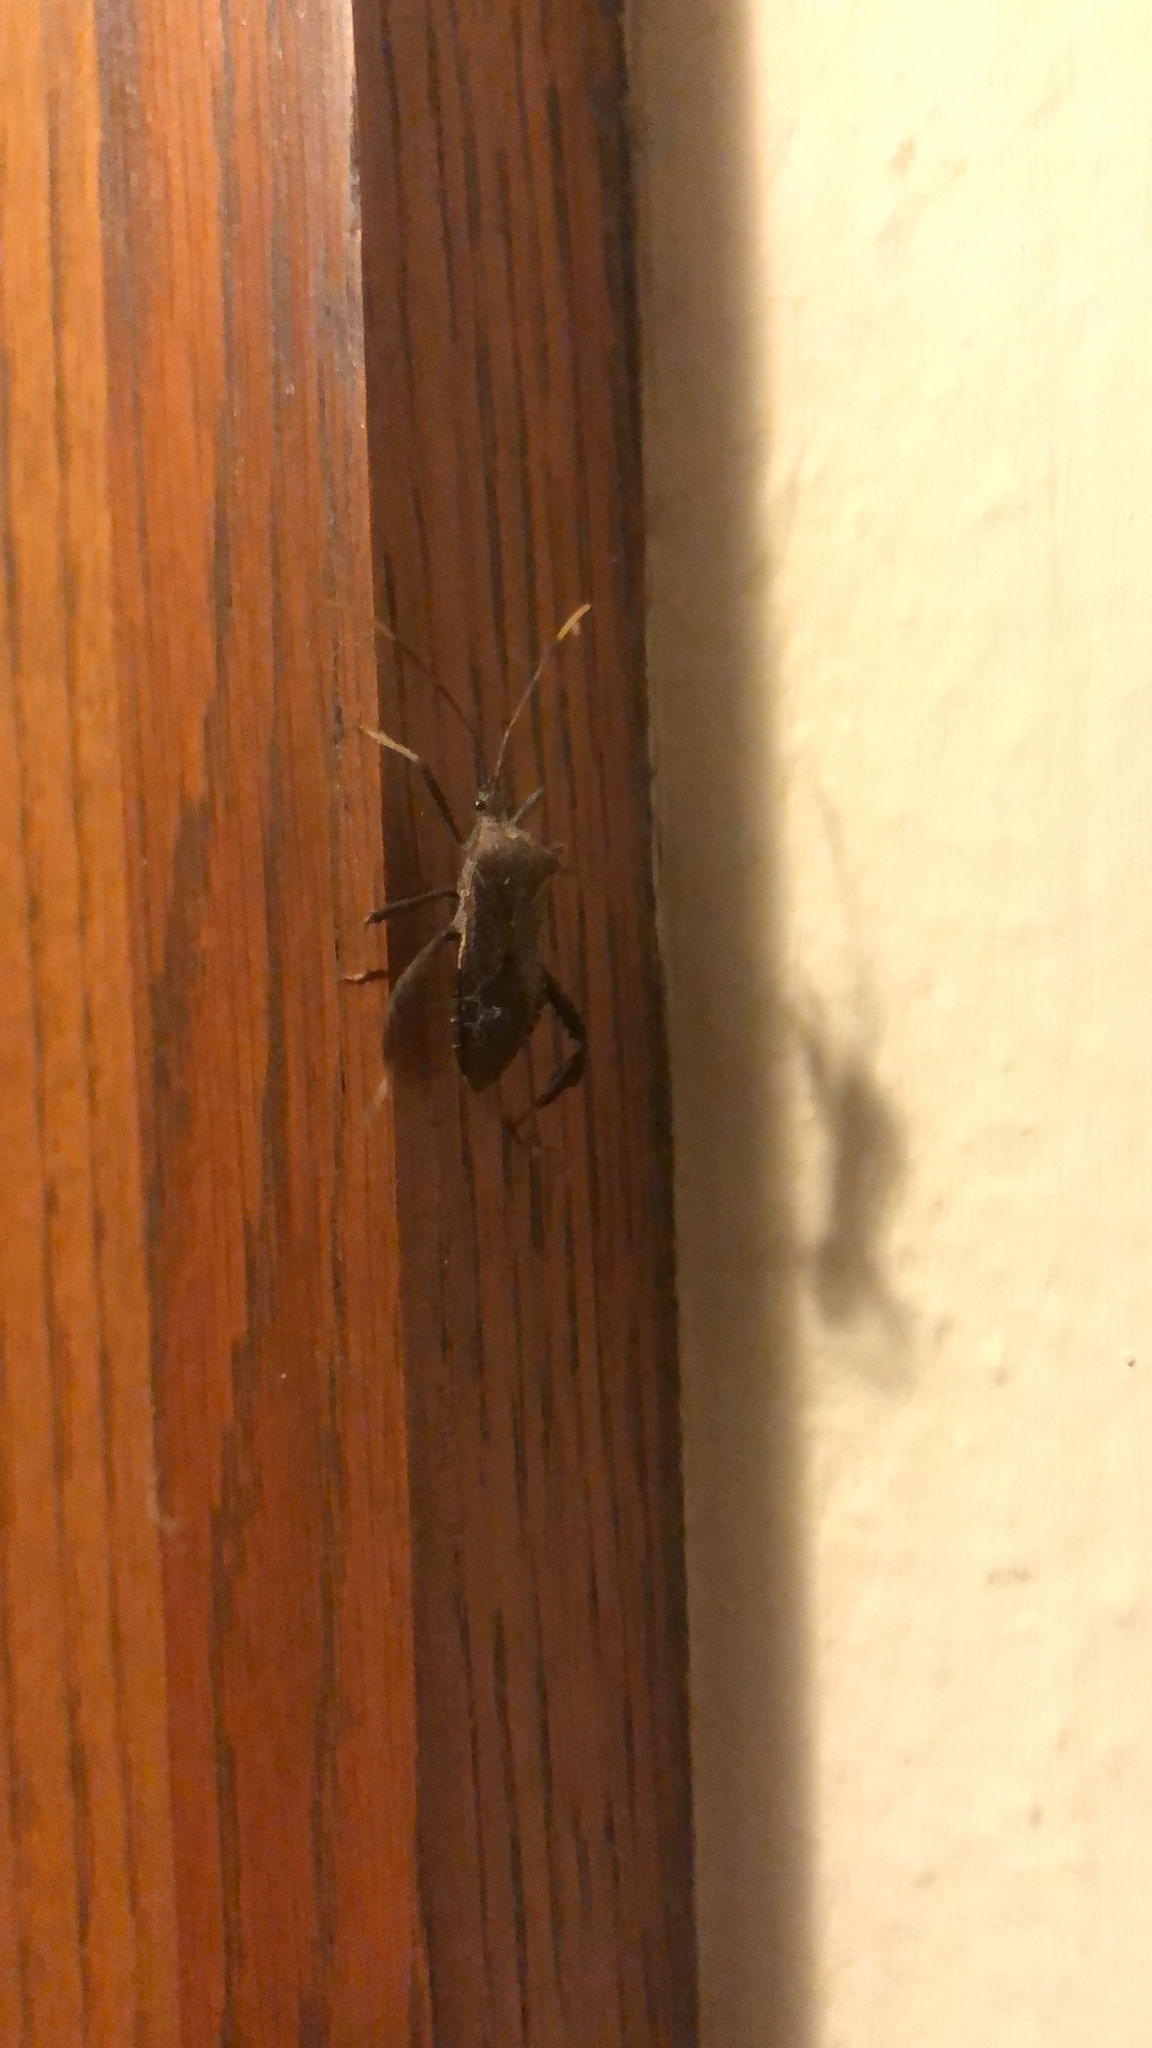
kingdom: Animalia
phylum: Arthropoda
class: Insecta
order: Hemiptera
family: Coreidae
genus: Acanthocephala
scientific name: Acanthocephala terminalis
